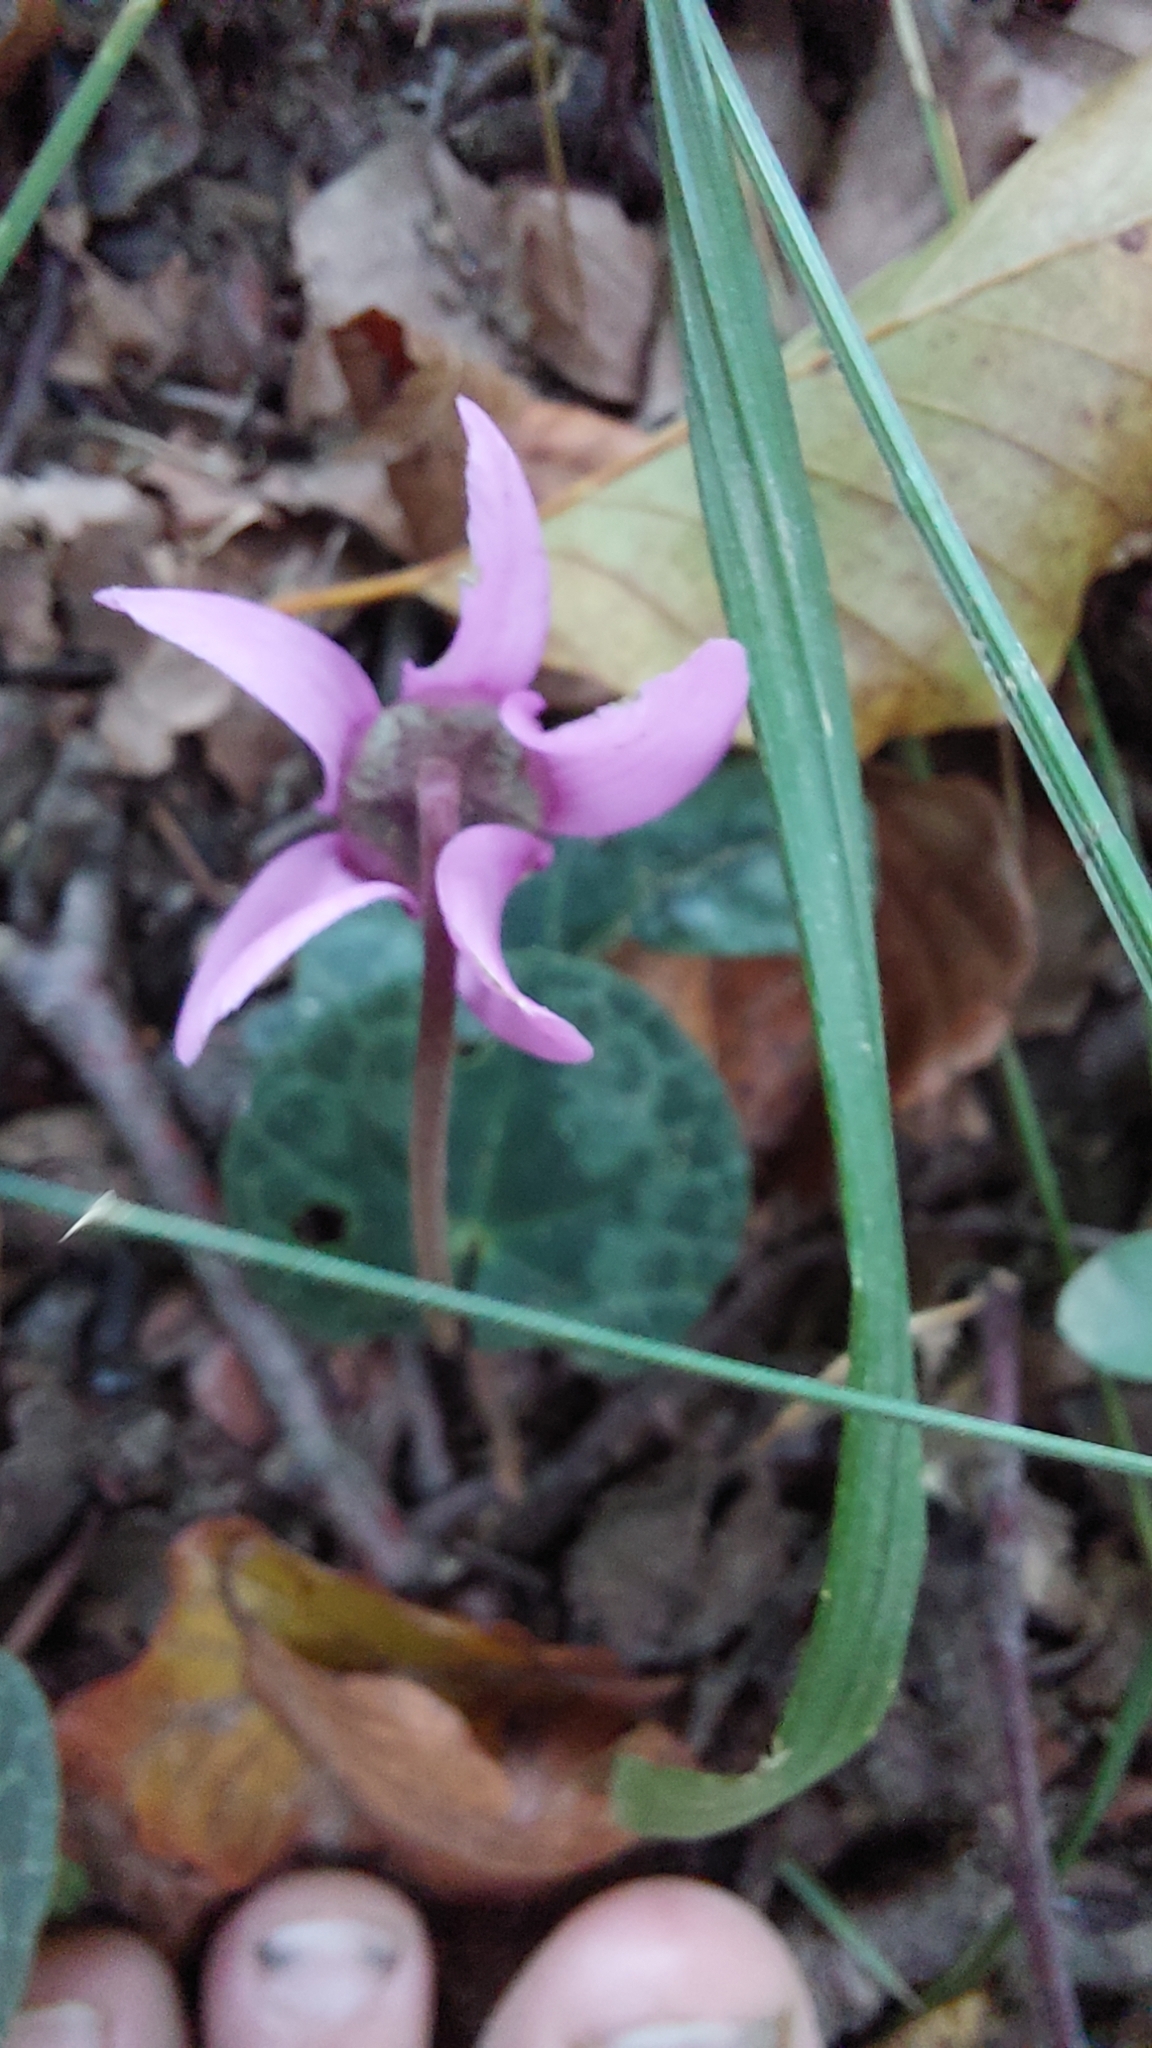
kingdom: Plantae
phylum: Tracheophyta
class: Magnoliopsida
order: Ericales
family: Primulaceae
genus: Cyclamen
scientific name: Cyclamen purpurascens
